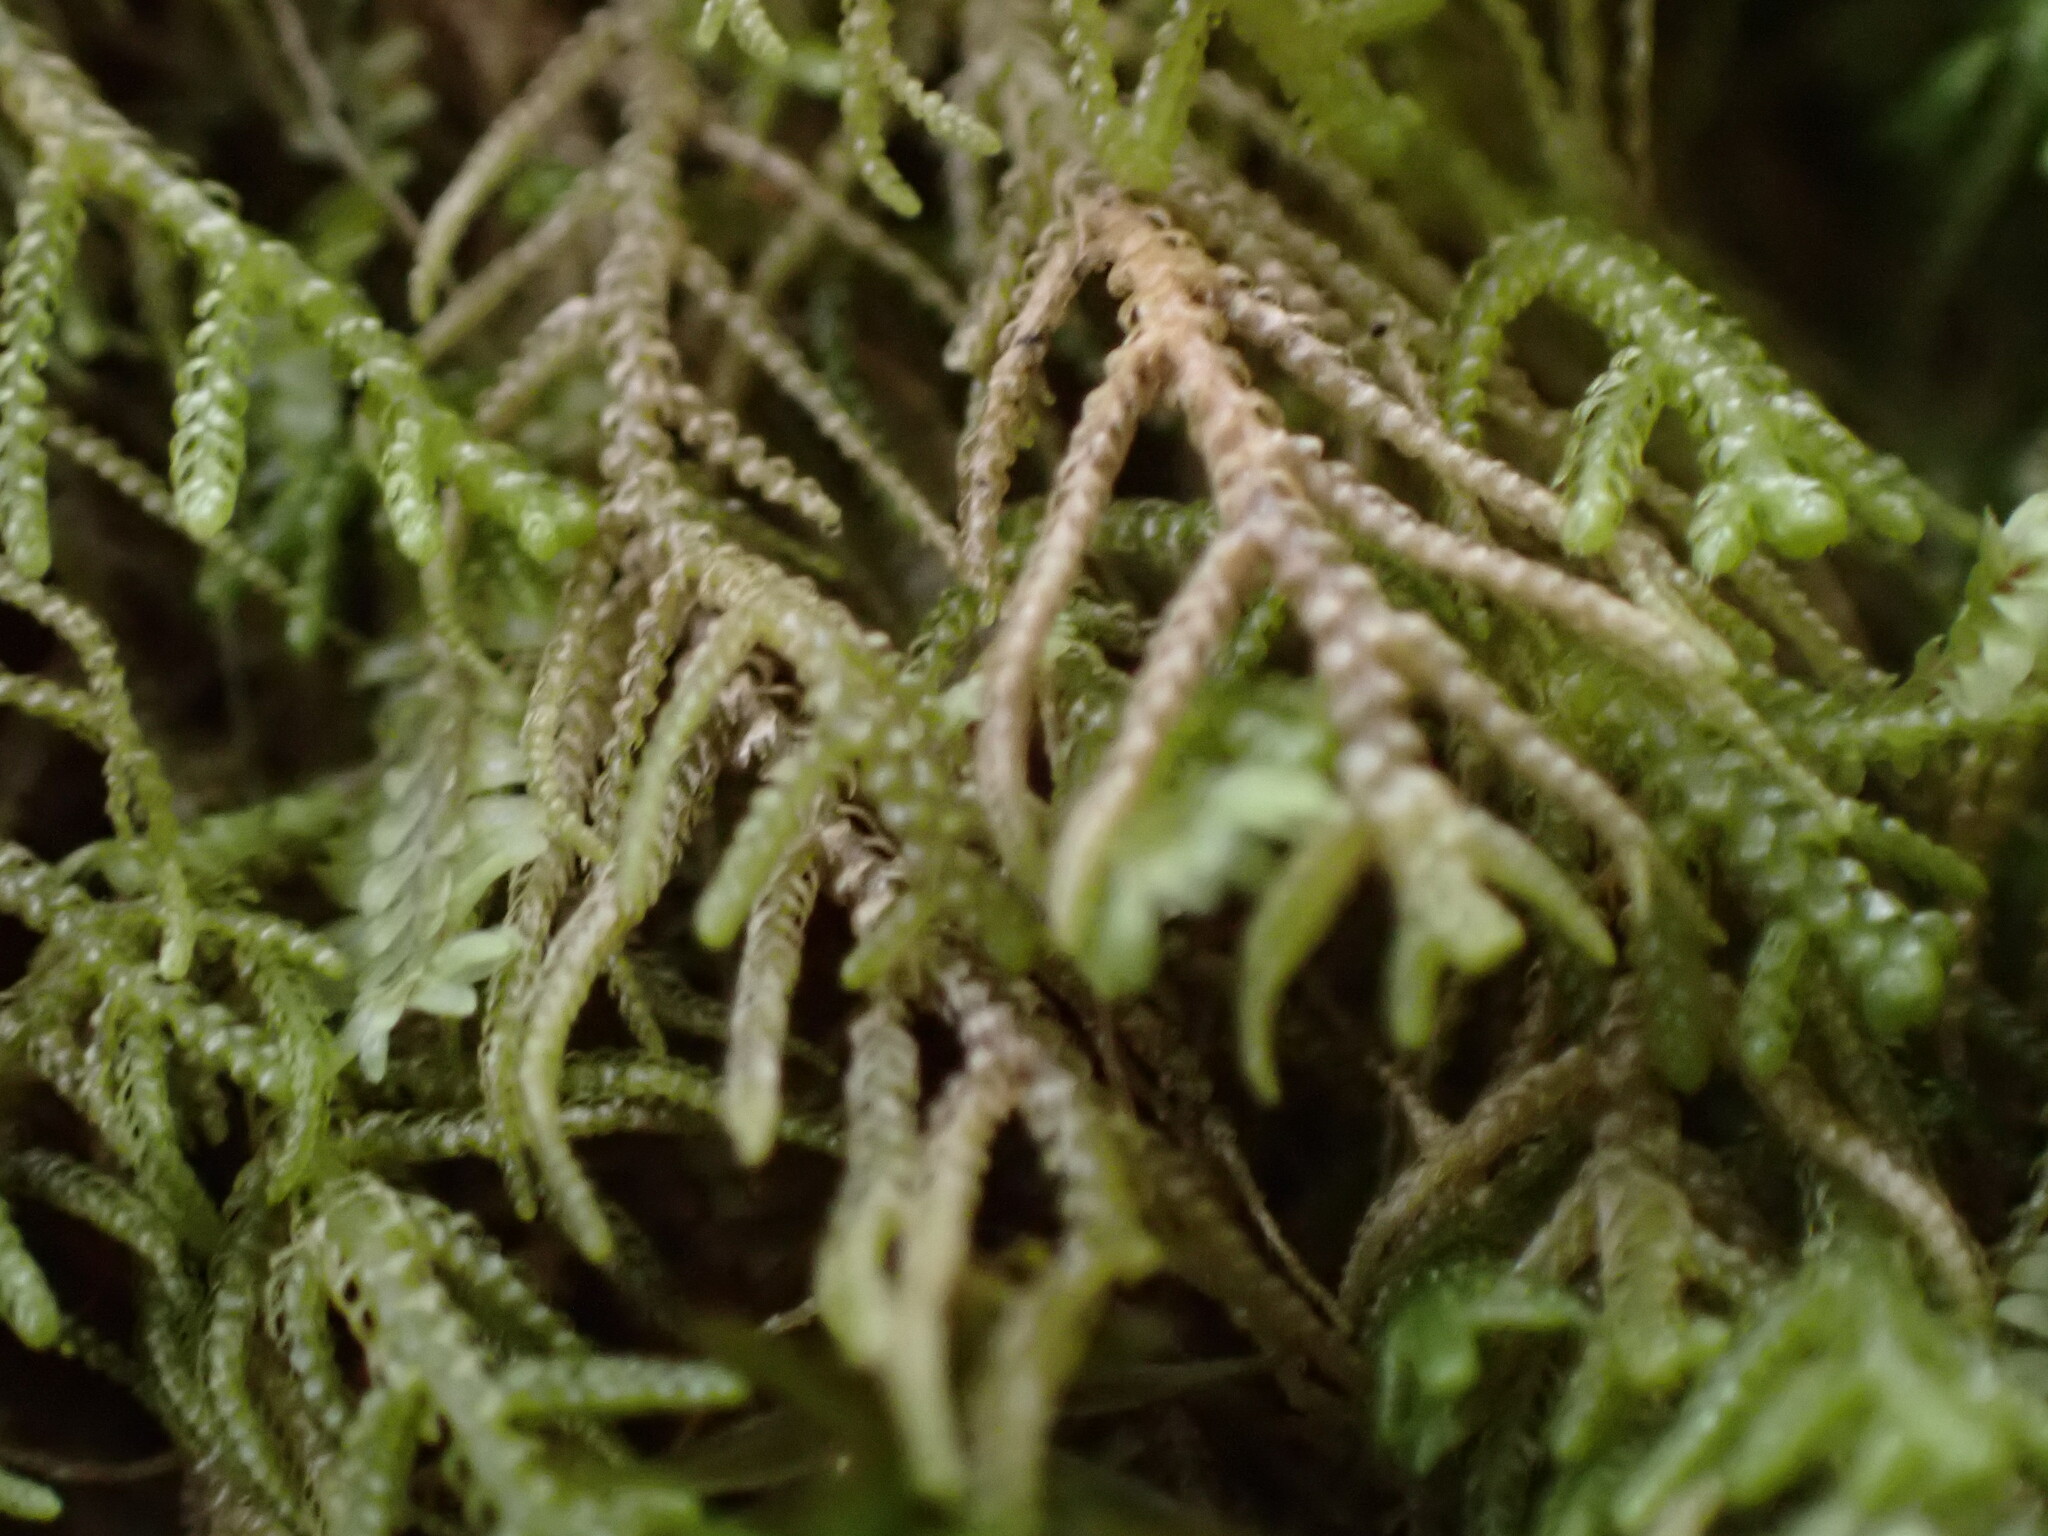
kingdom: Plantae
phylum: Marchantiophyta
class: Jungermanniopsida
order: Jungermanniales
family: Lepidoziaceae
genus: Lepidozia
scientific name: Lepidozia filamentosa
